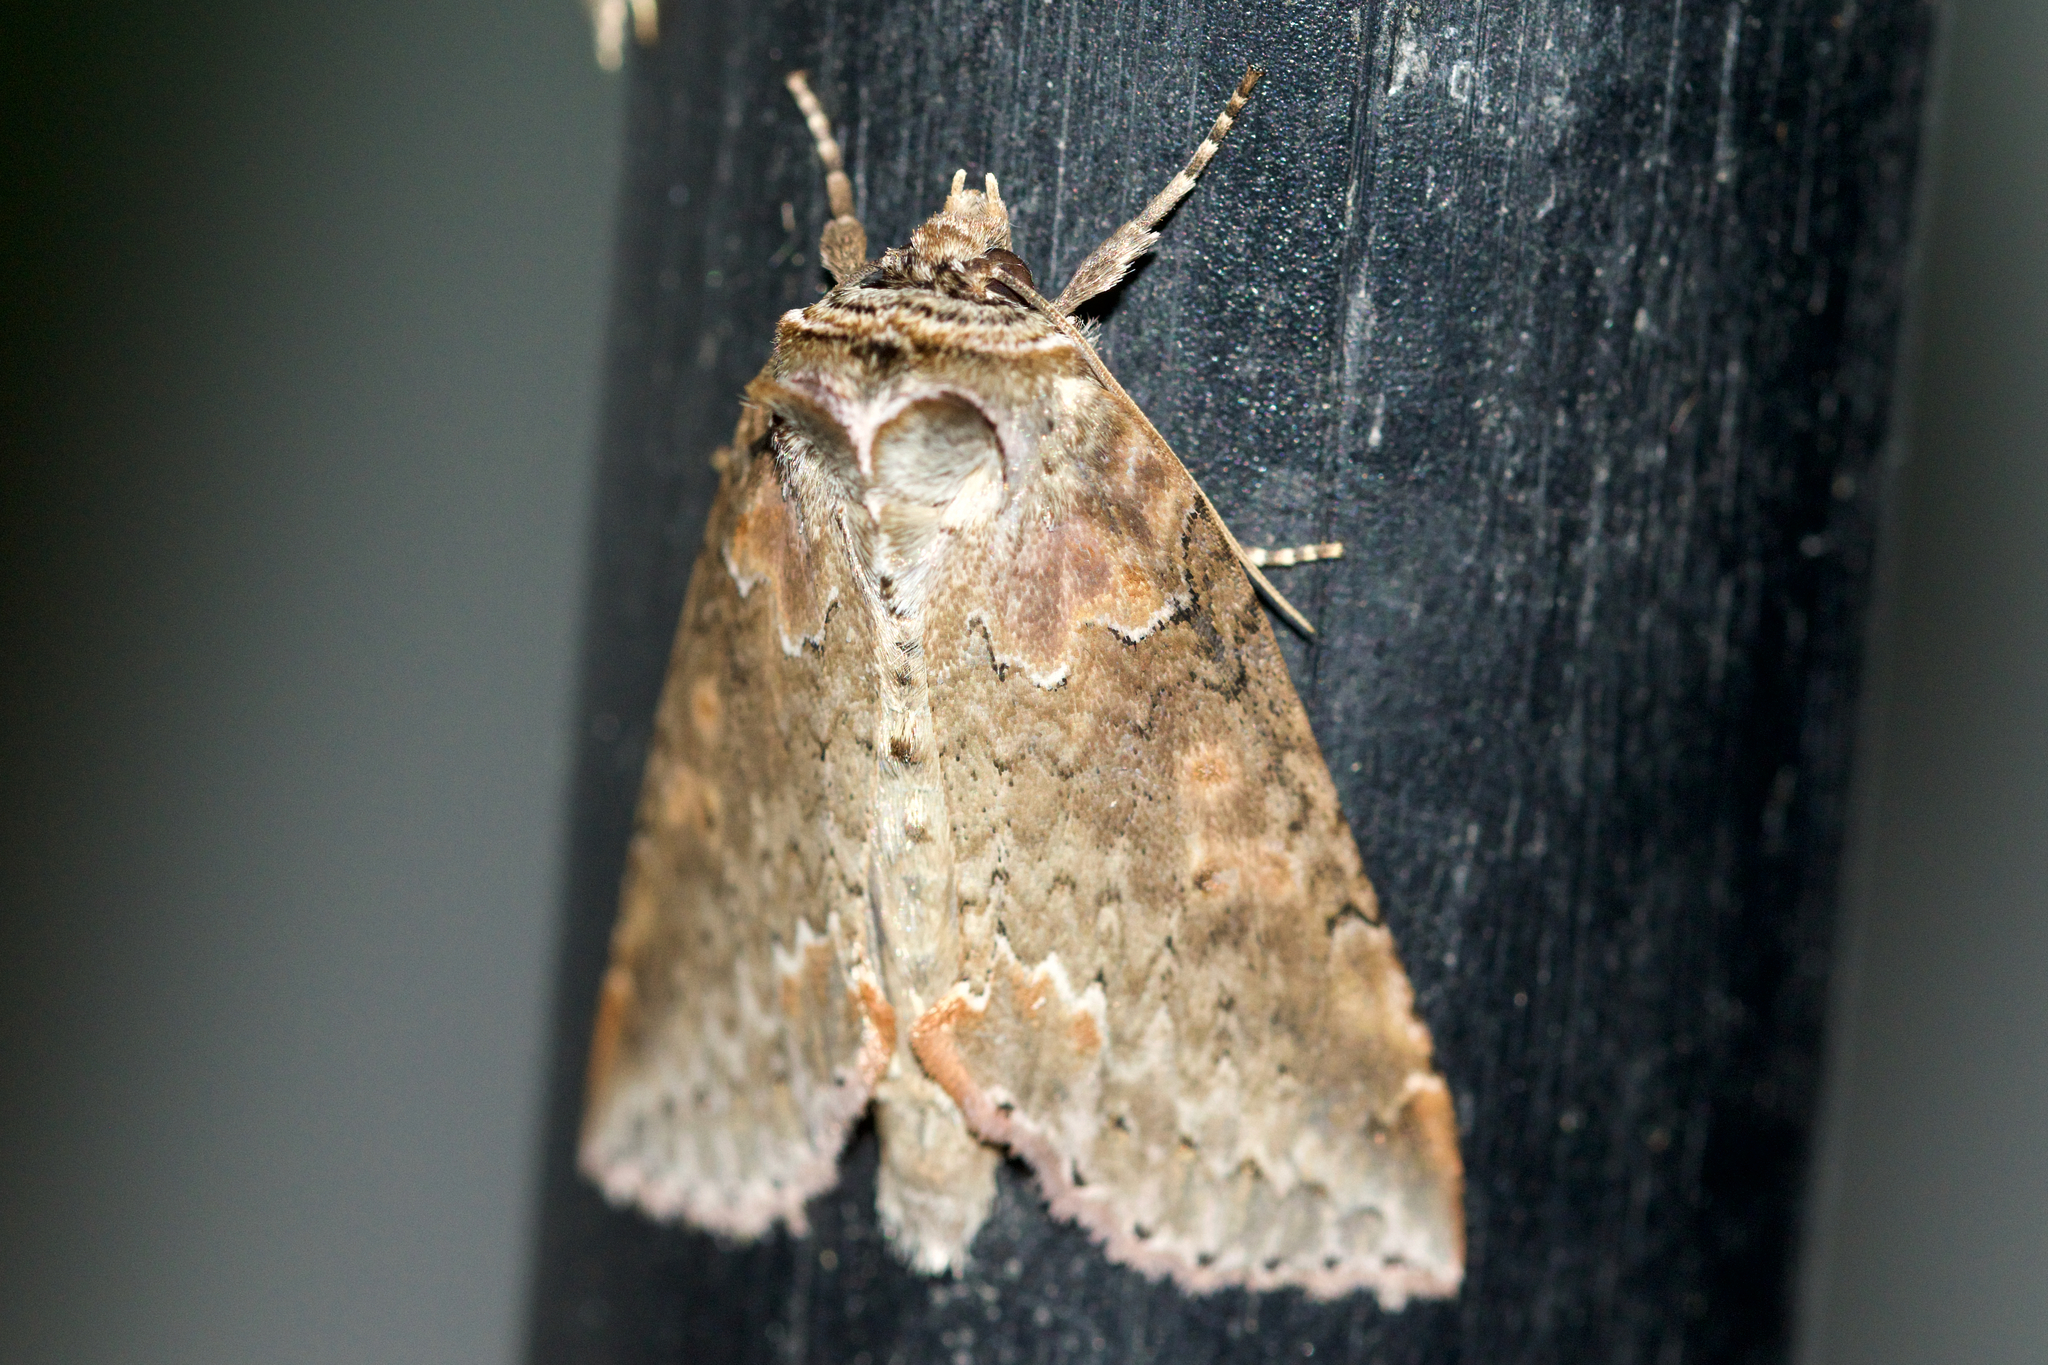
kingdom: Animalia
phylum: Arthropoda
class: Insecta
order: Lepidoptera
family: Drepanidae
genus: Pseudothyatira
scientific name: Pseudothyatira cymatophoroides
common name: Tufted thyatirid moth
